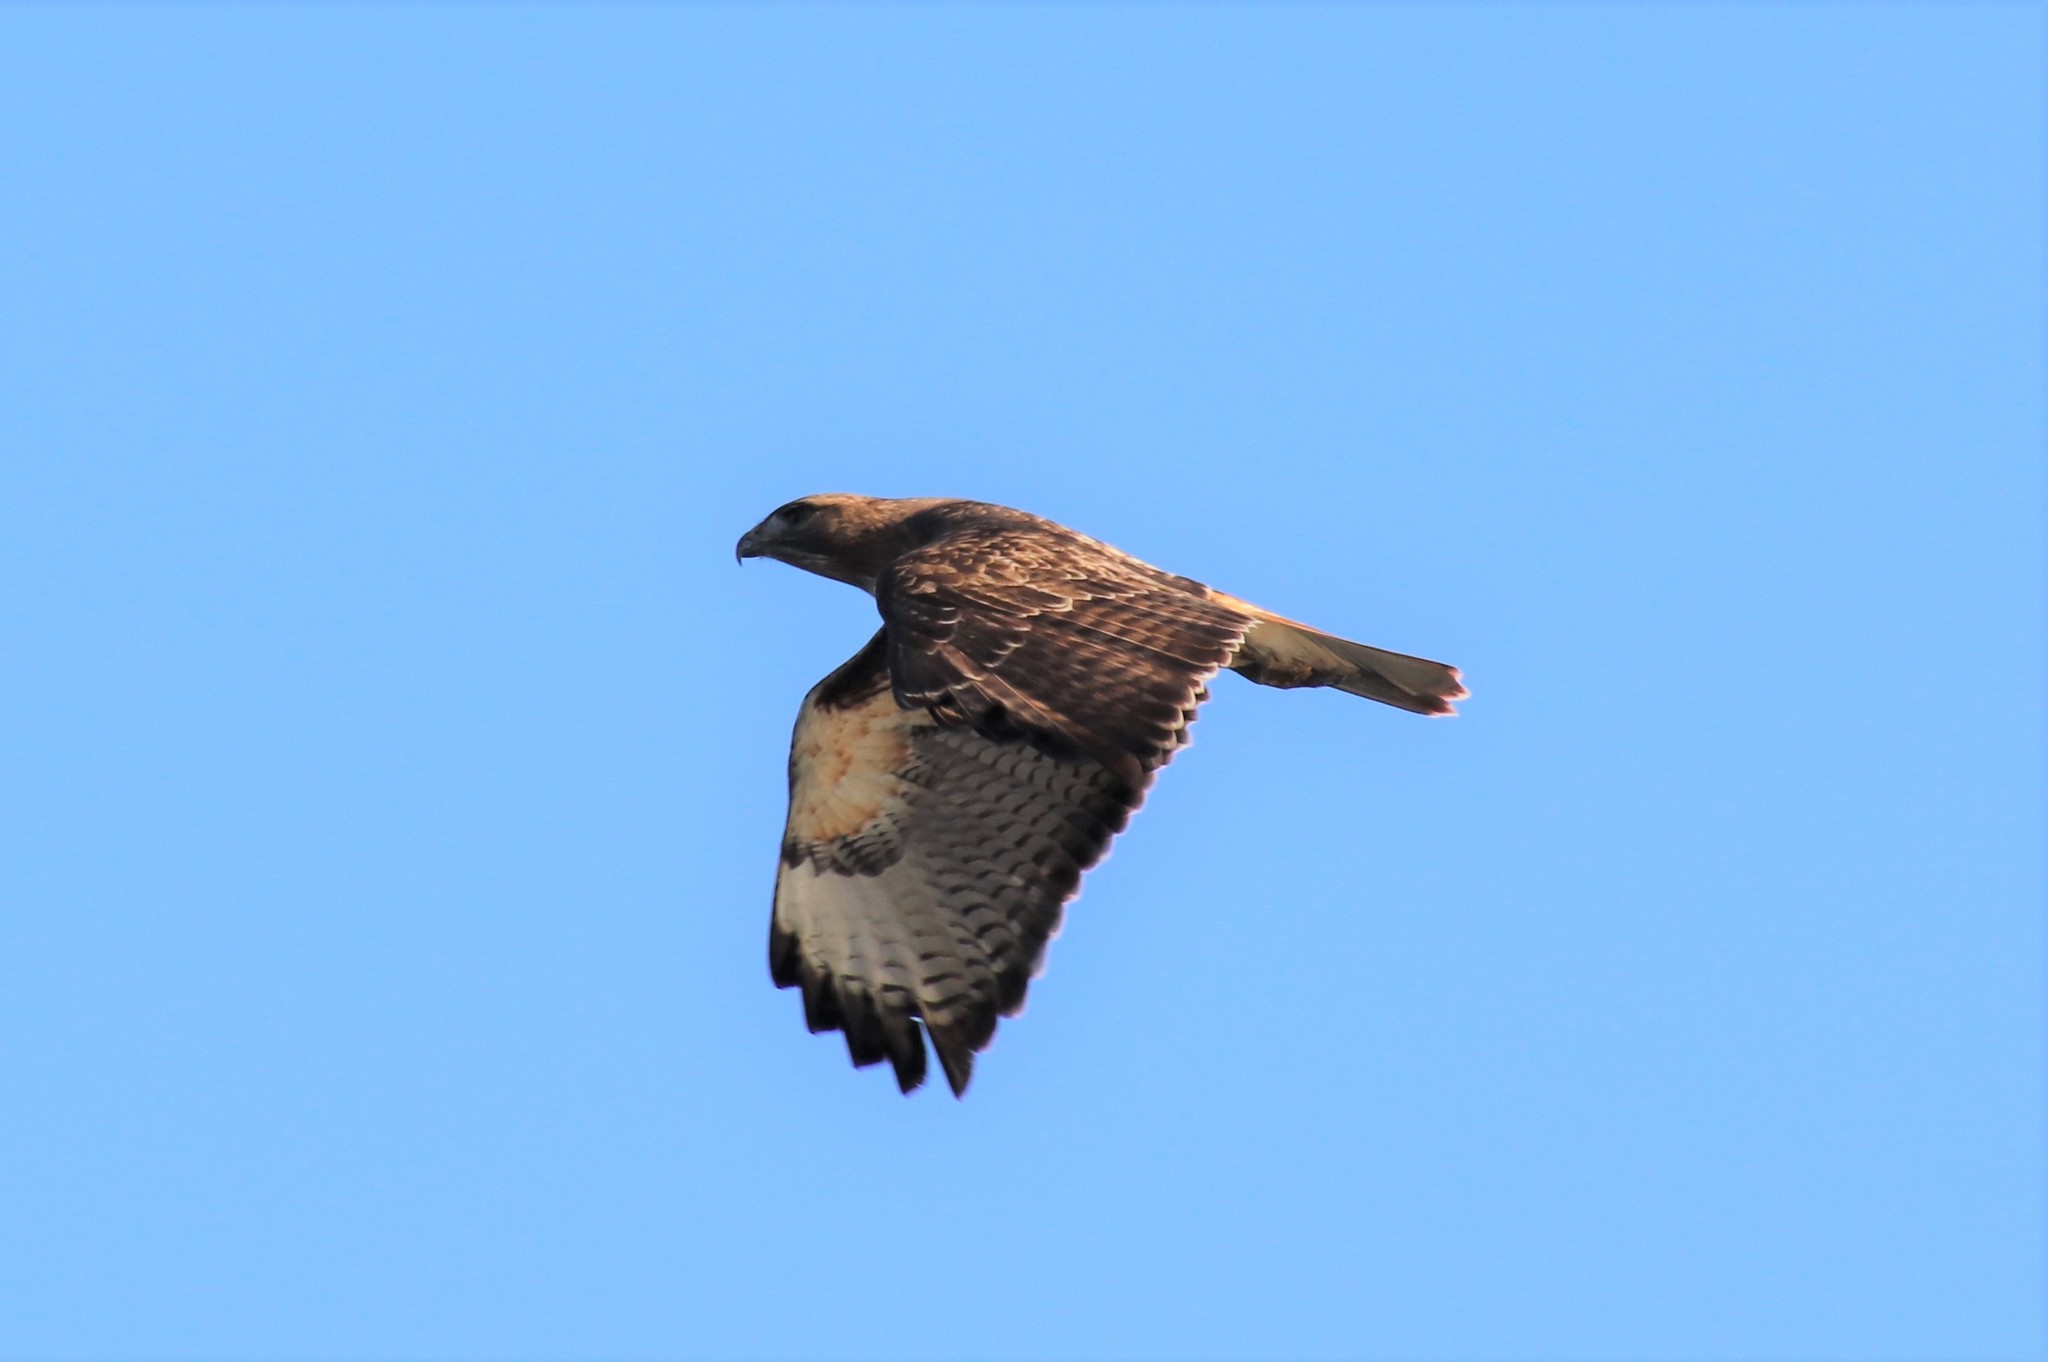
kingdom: Animalia
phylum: Chordata
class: Aves
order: Accipitriformes
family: Accipitridae
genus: Buteo
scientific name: Buteo jamaicensis
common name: Red-tailed hawk
